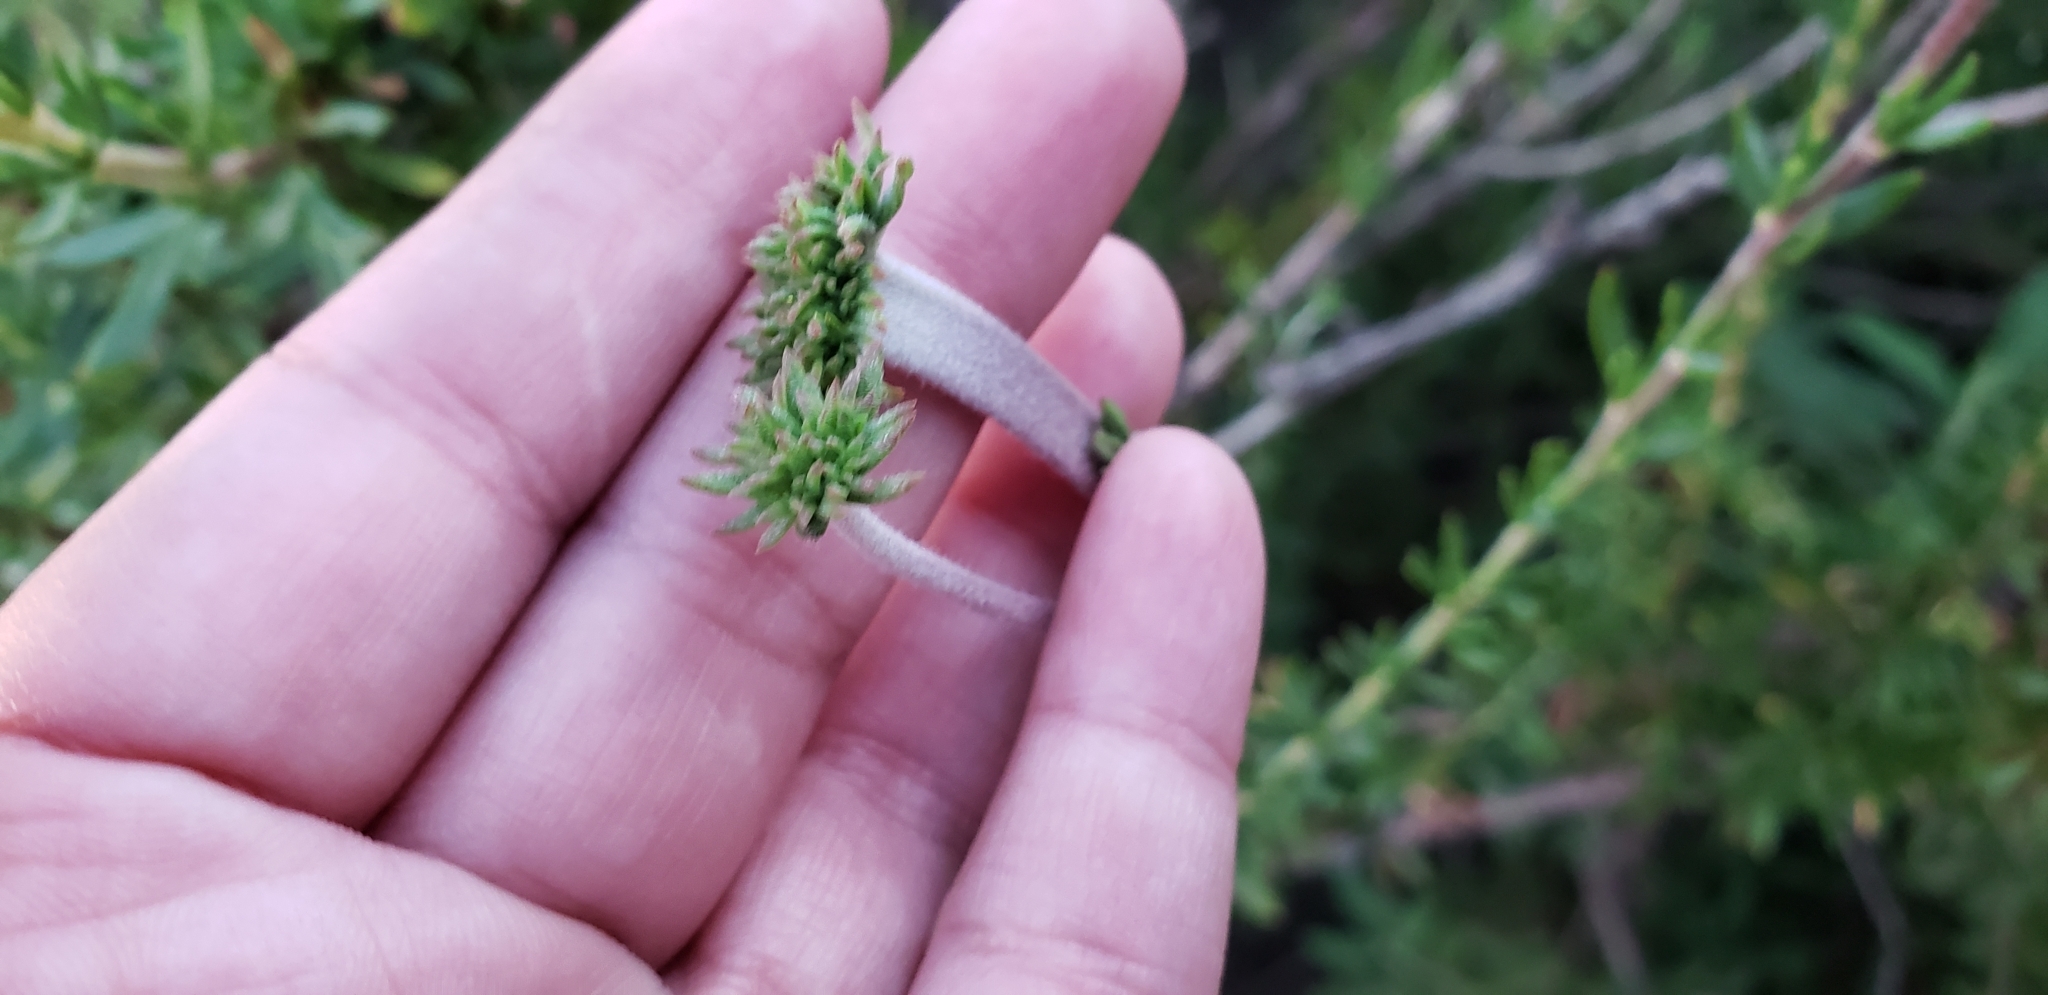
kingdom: Plantae
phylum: Tracheophyta
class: Magnoliopsida
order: Caryophyllales
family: Polygonaceae
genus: Eriogonum
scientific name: Eriogonum fasciculatum
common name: California wild buckwheat
